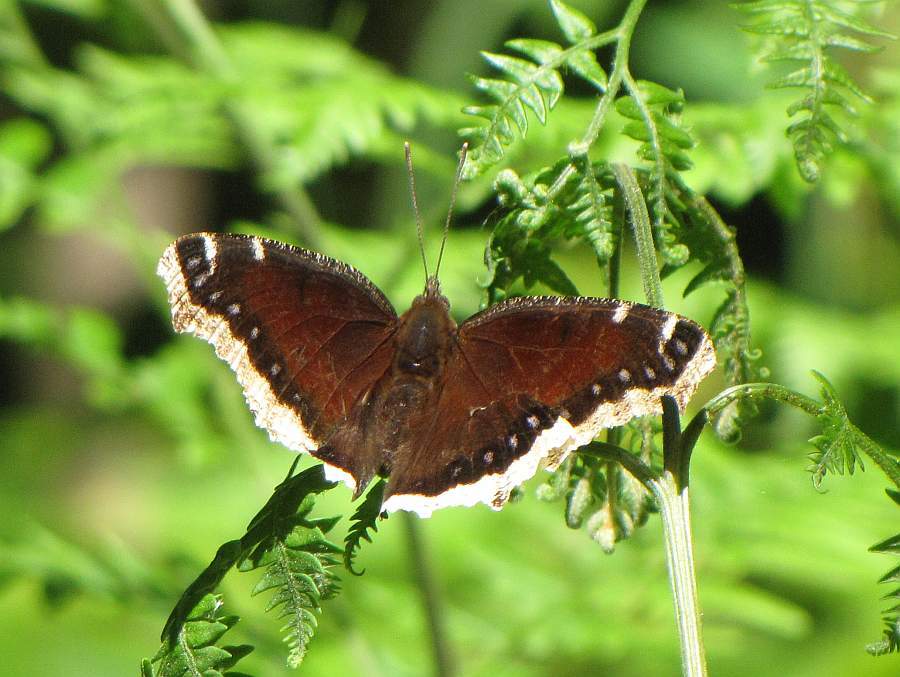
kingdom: Animalia
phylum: Arthropoda
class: Insecta
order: Lepidoptera
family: Nymphalidae
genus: Nymphalis
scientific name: Nymphalis antiopa
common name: Camberwell beauty
